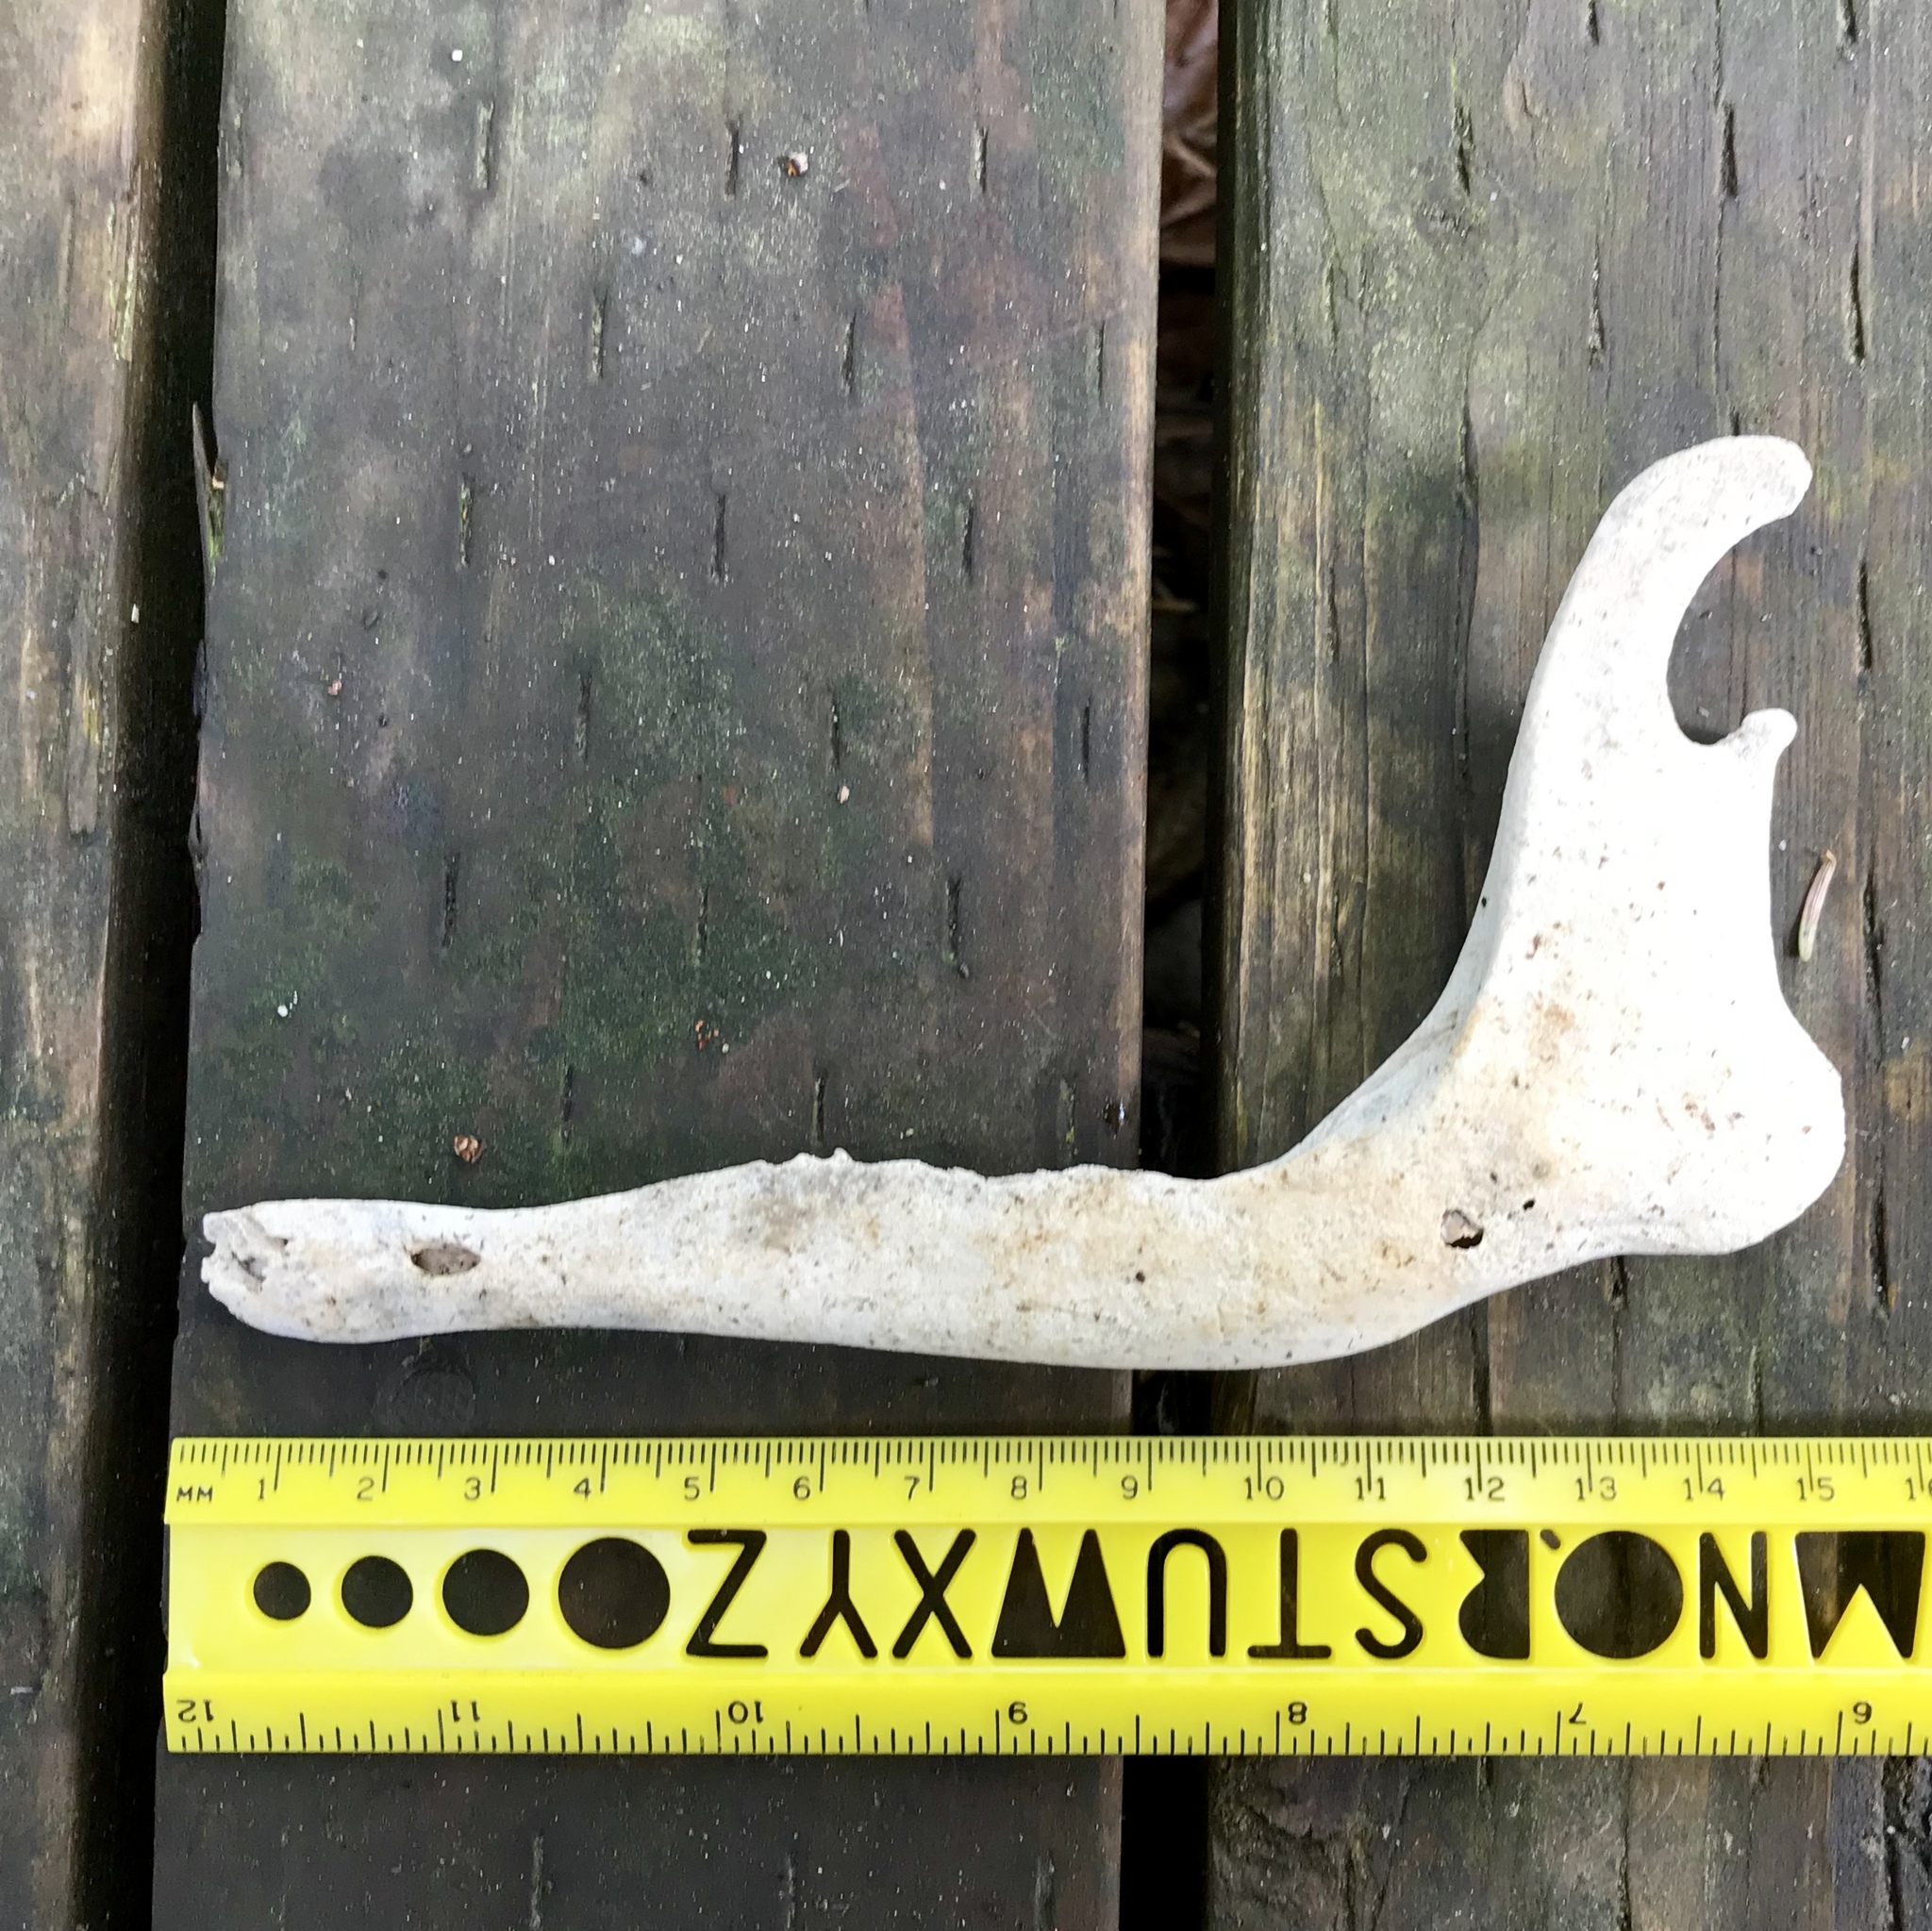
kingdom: Animalia
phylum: Chordata
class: Mammalia
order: Artiodactyla
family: Cervidae
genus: Odocoileus
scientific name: Odocoileus hemionus
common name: Mule deer
